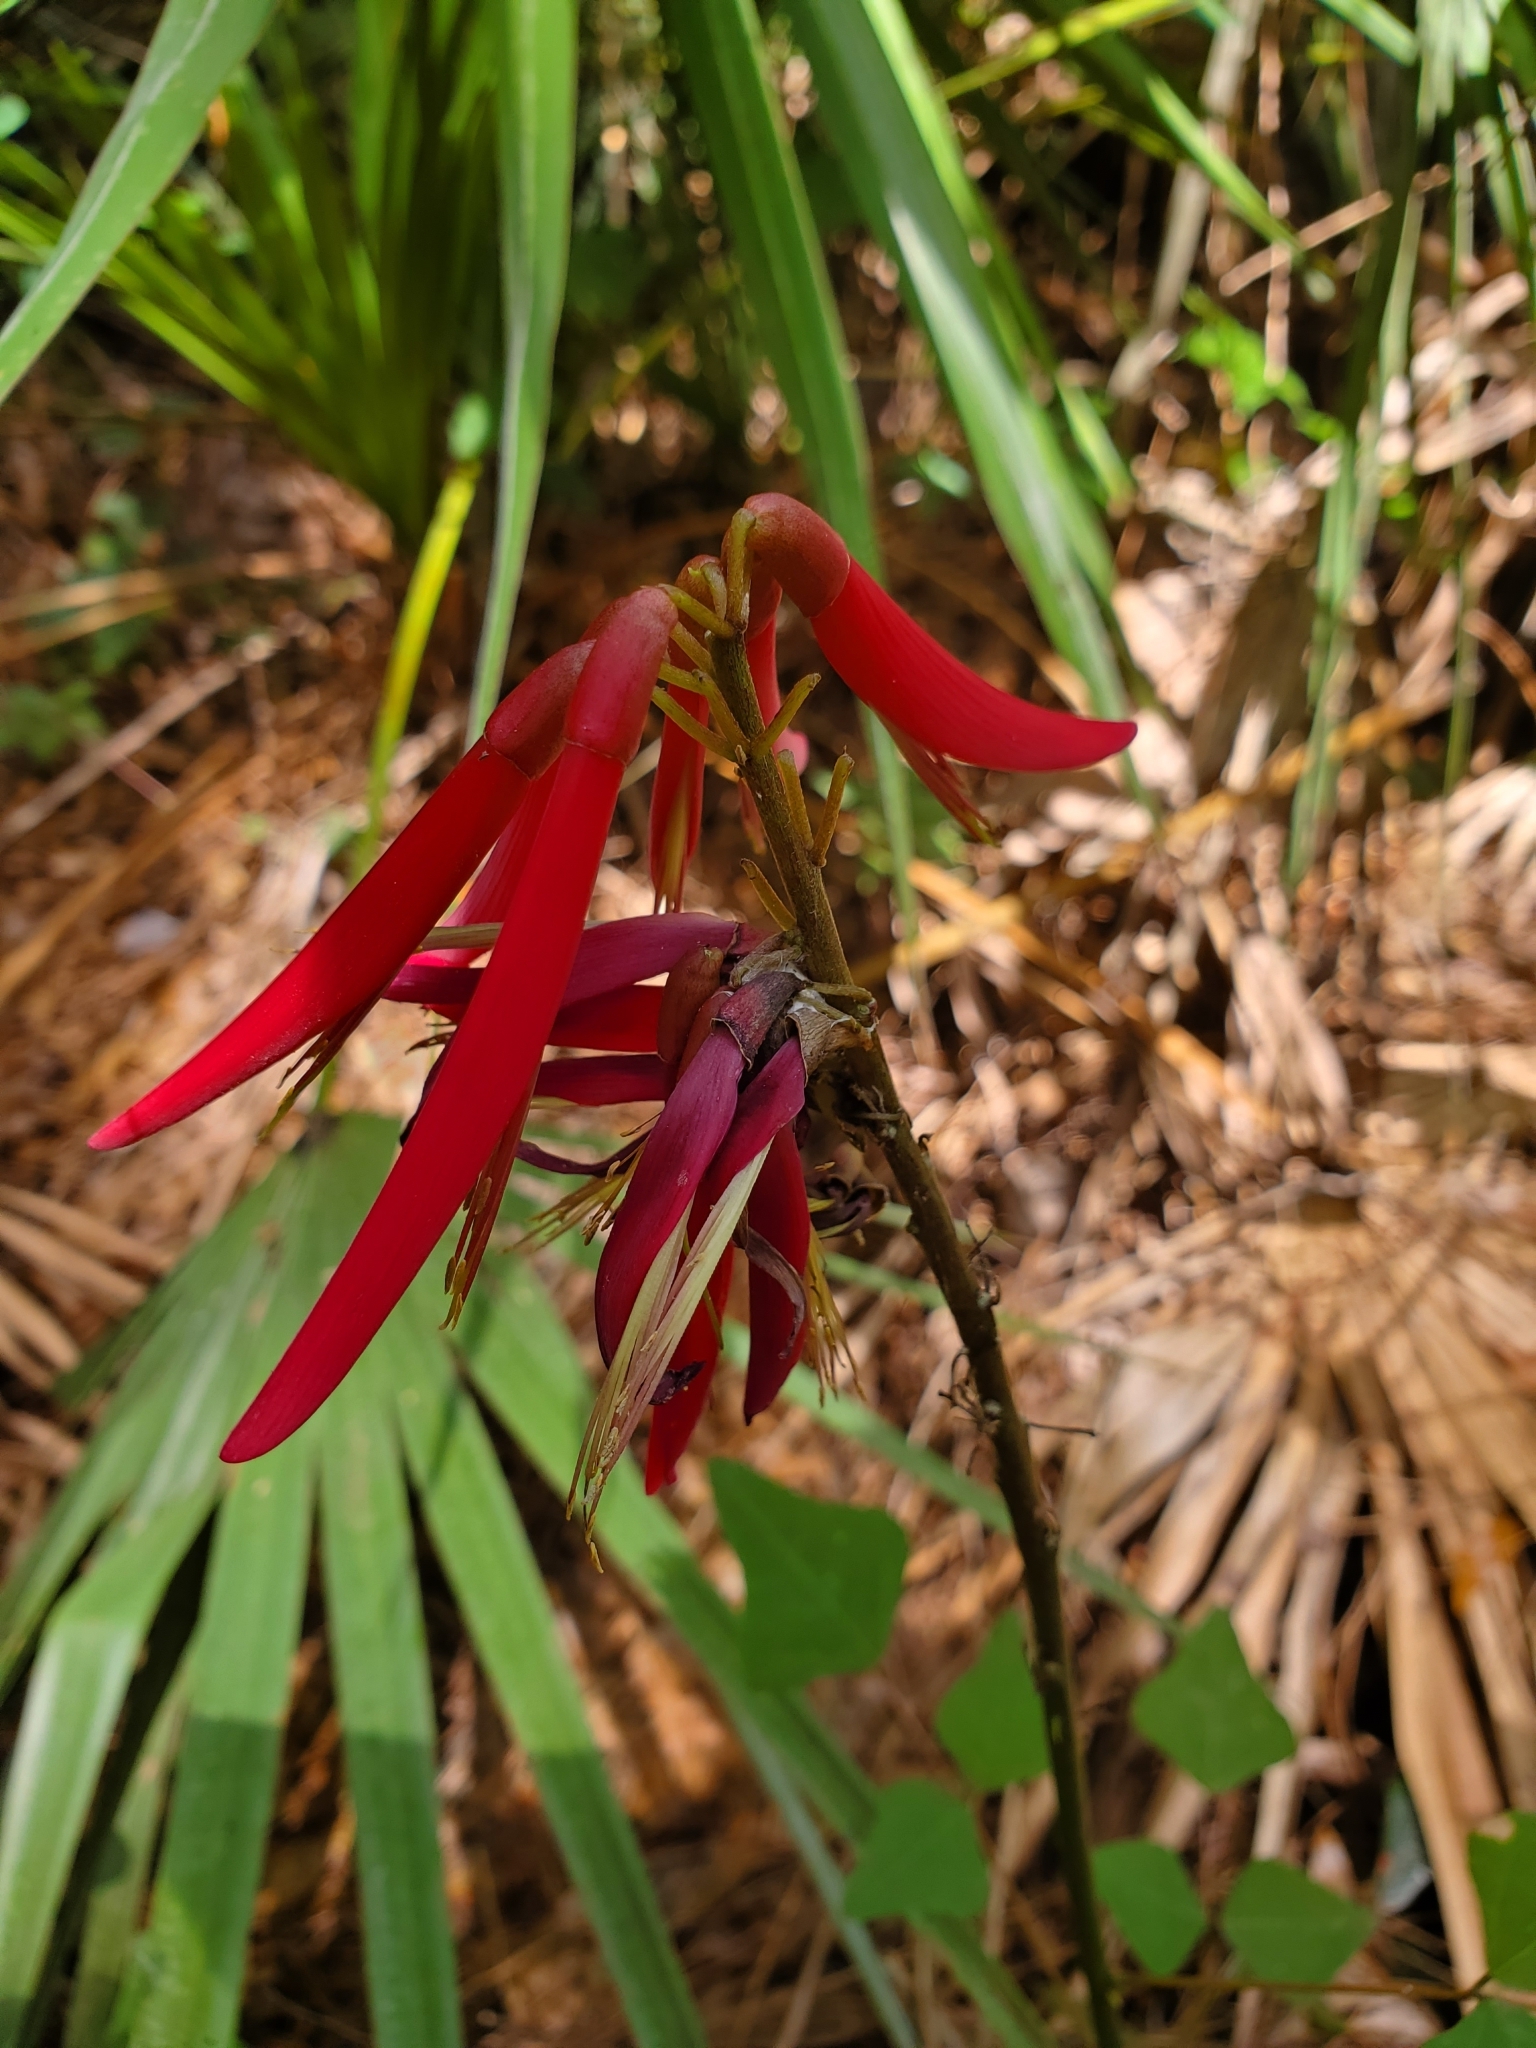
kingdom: Plantae
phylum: Tracheophyta
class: Magnoliopsida
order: Fabales
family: Fabaceae
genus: Erythrina
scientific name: Erythrina herbacea
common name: Coral-bean
